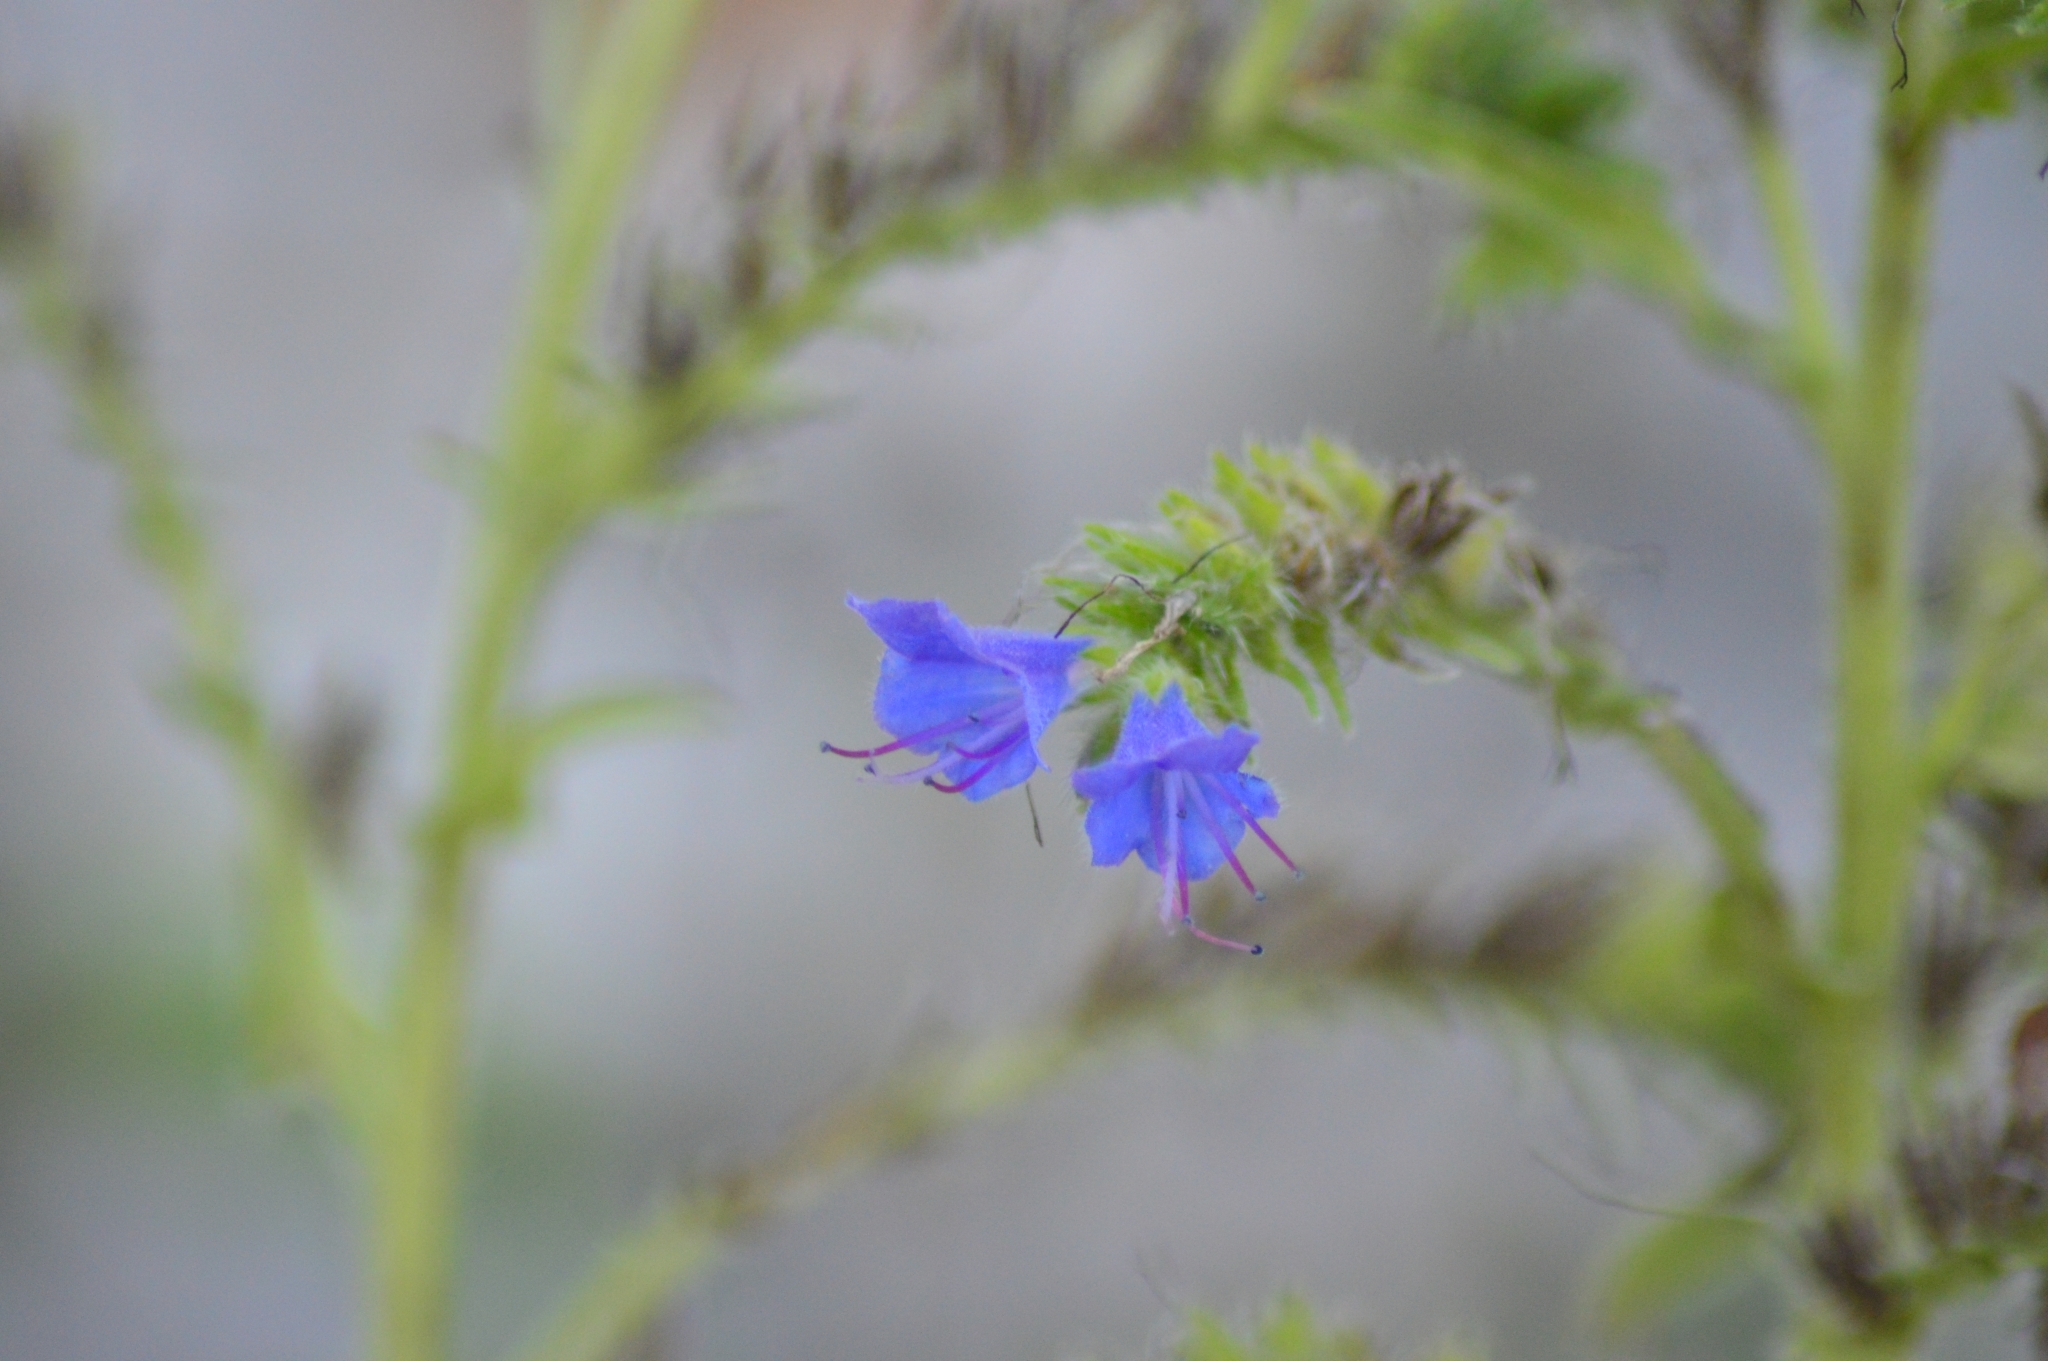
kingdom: Plantae
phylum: Tracheophyta
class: Magnoliopsida
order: Boraginales
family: Boraginaceae
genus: Echium
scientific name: Echium vulgare
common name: Common viper's bugloss
